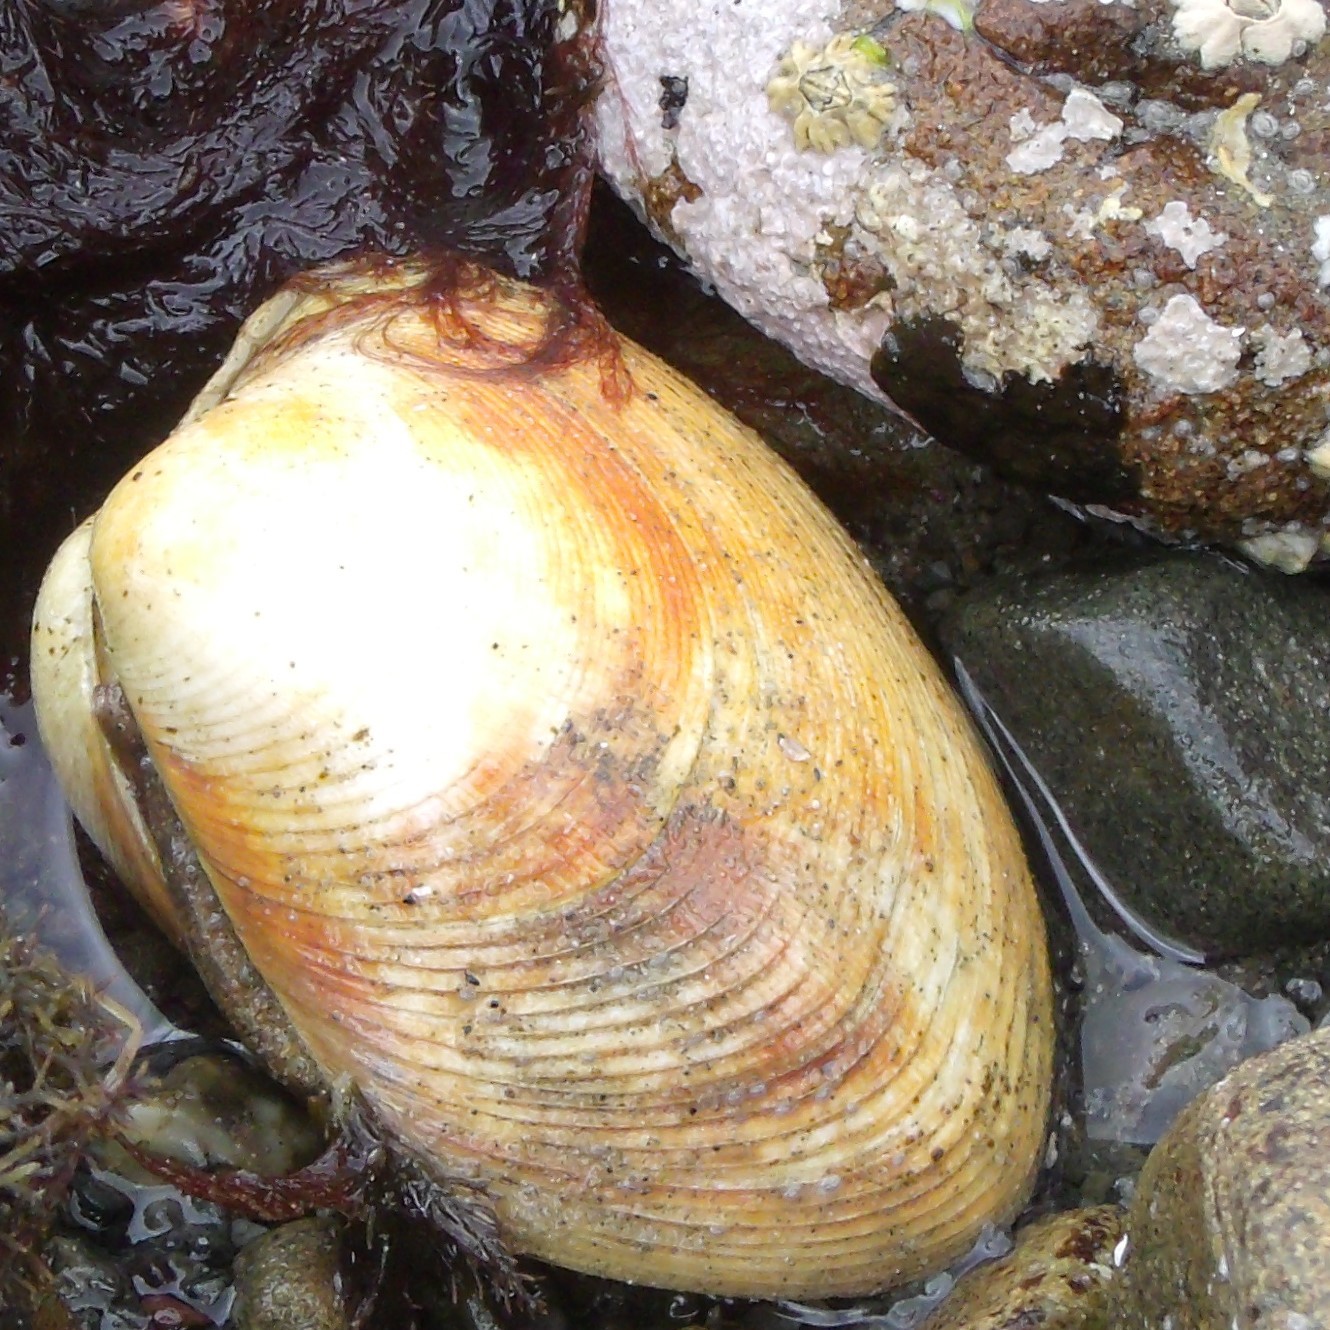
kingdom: Animalia
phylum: Mollusca
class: Bivalvia
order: Venerida
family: Veneridae
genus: Venerupis
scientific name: Venerupis largillierti
